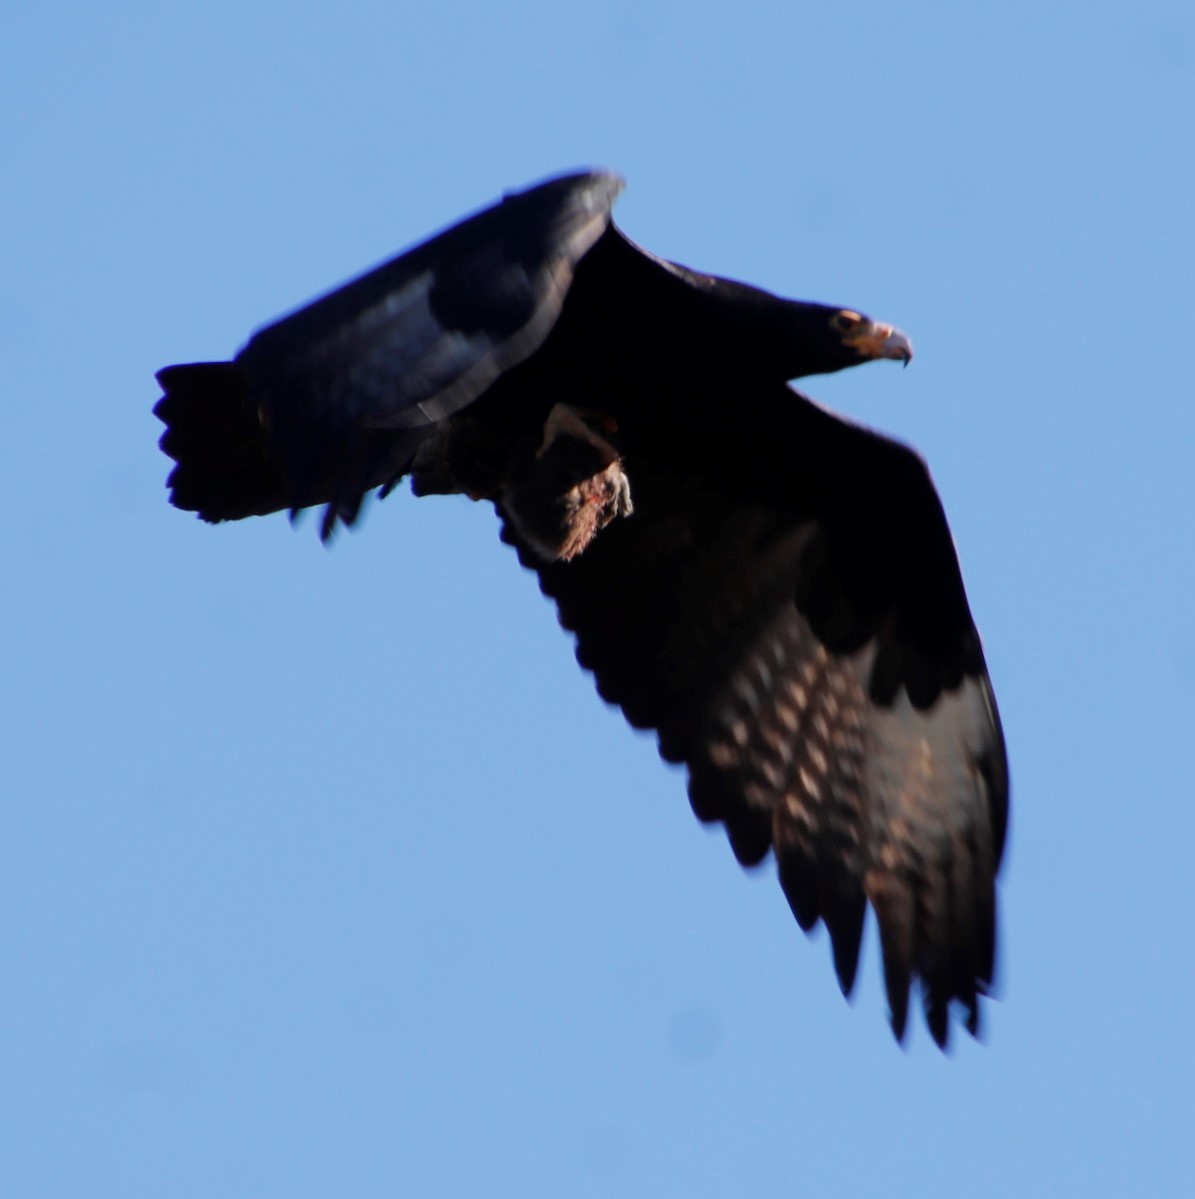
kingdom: Animalia
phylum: Chordata
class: Aves
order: Accipitriformes
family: Accipitridae
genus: Aquila
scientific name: Aquila verreauxii
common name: Verreaux's eagle
